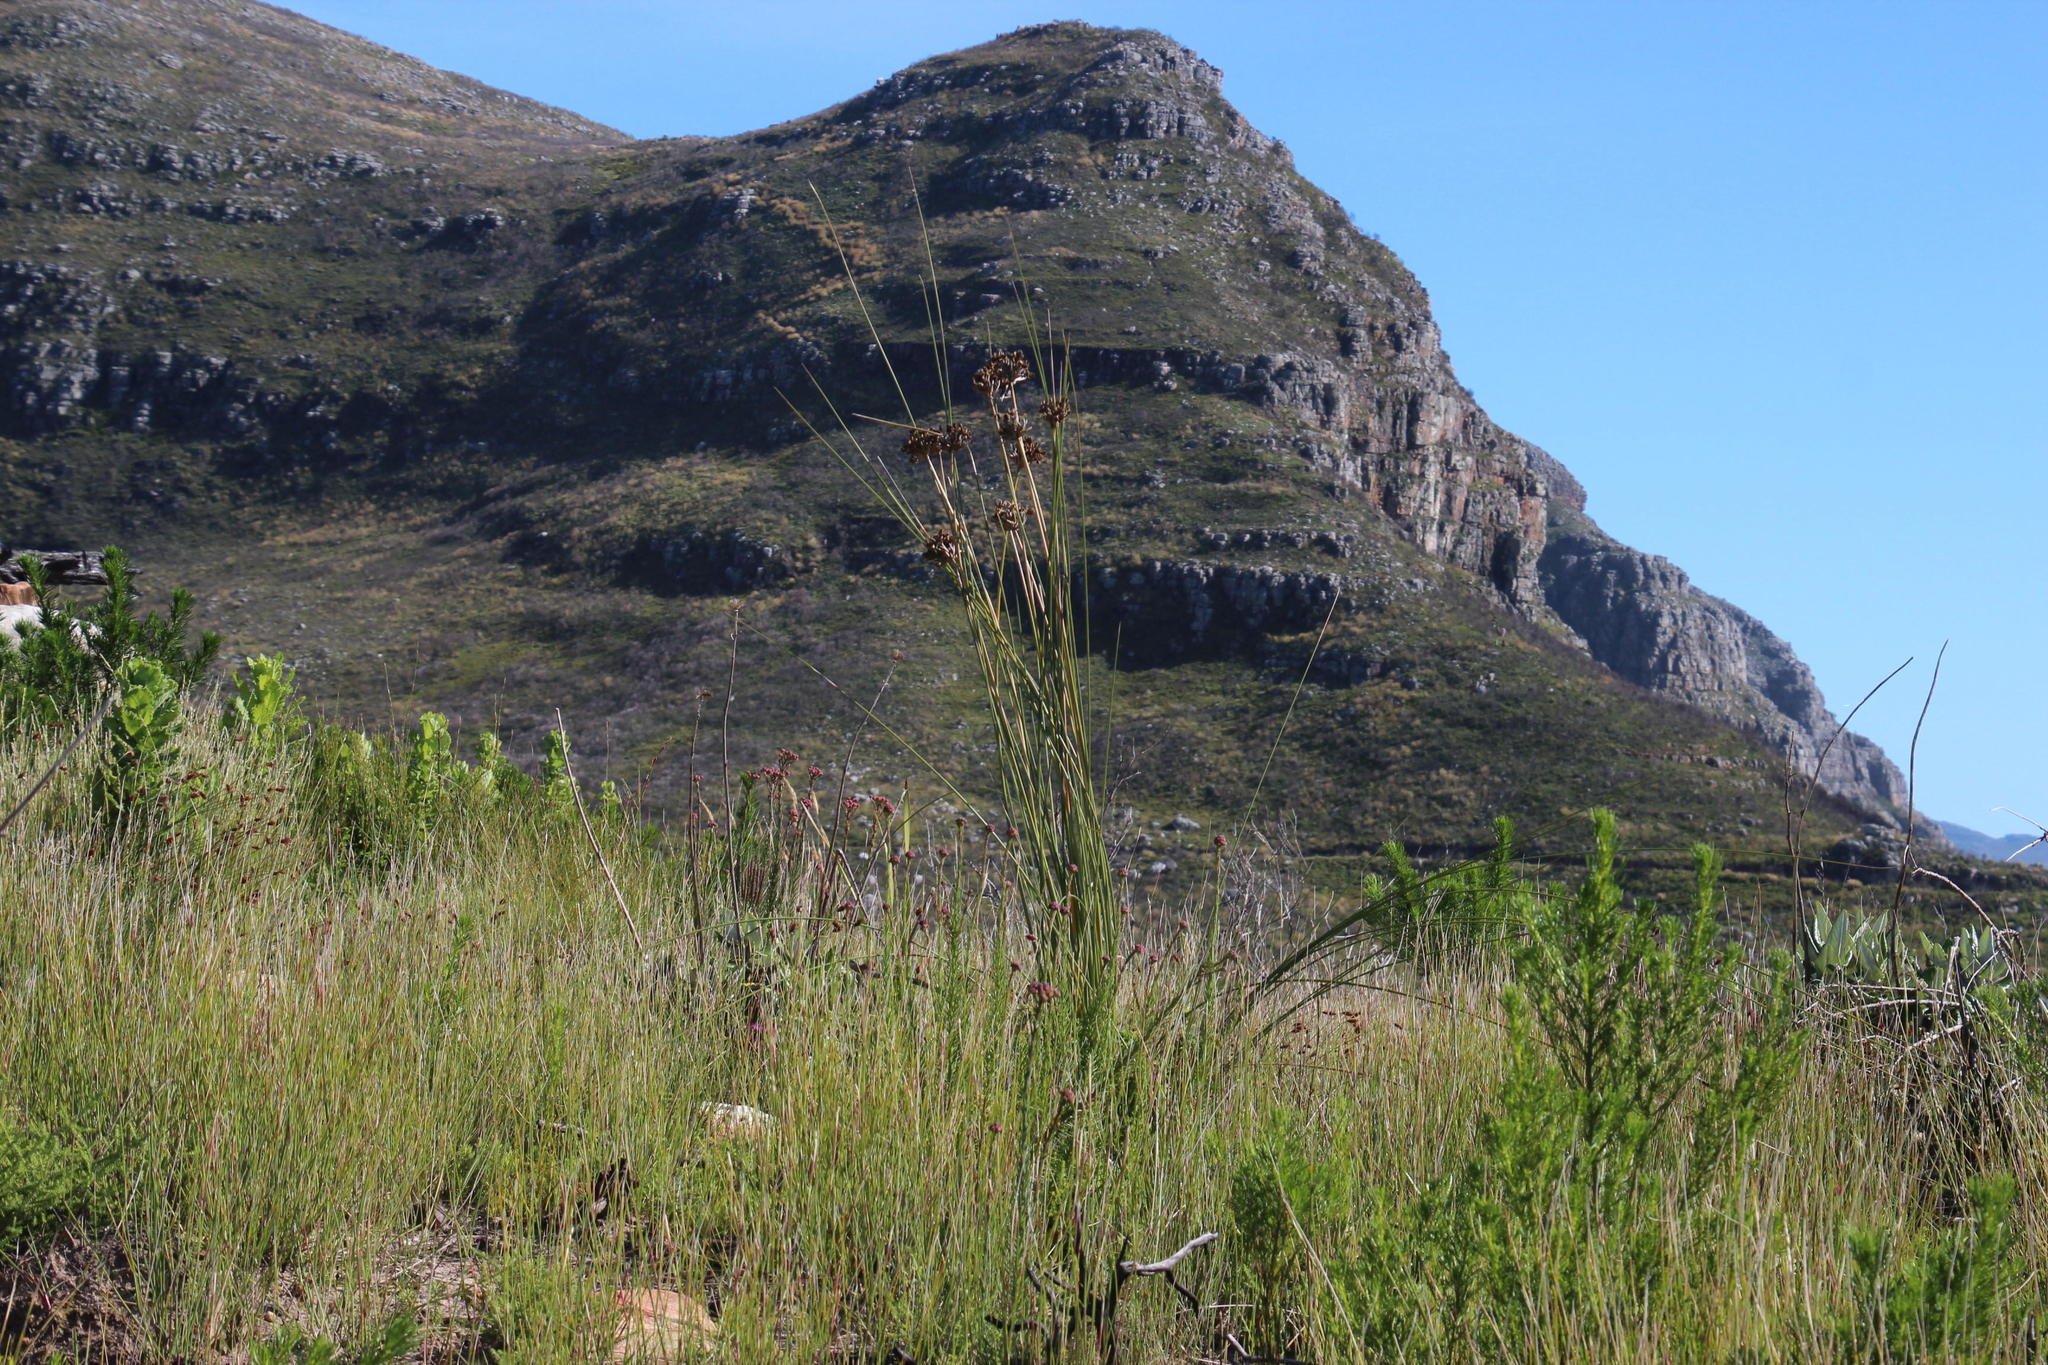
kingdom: Plantae
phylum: Tracheophyta
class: Liliopsida
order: Asparagales
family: Iridaceae
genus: Bobartia
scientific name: Bobartia indica
